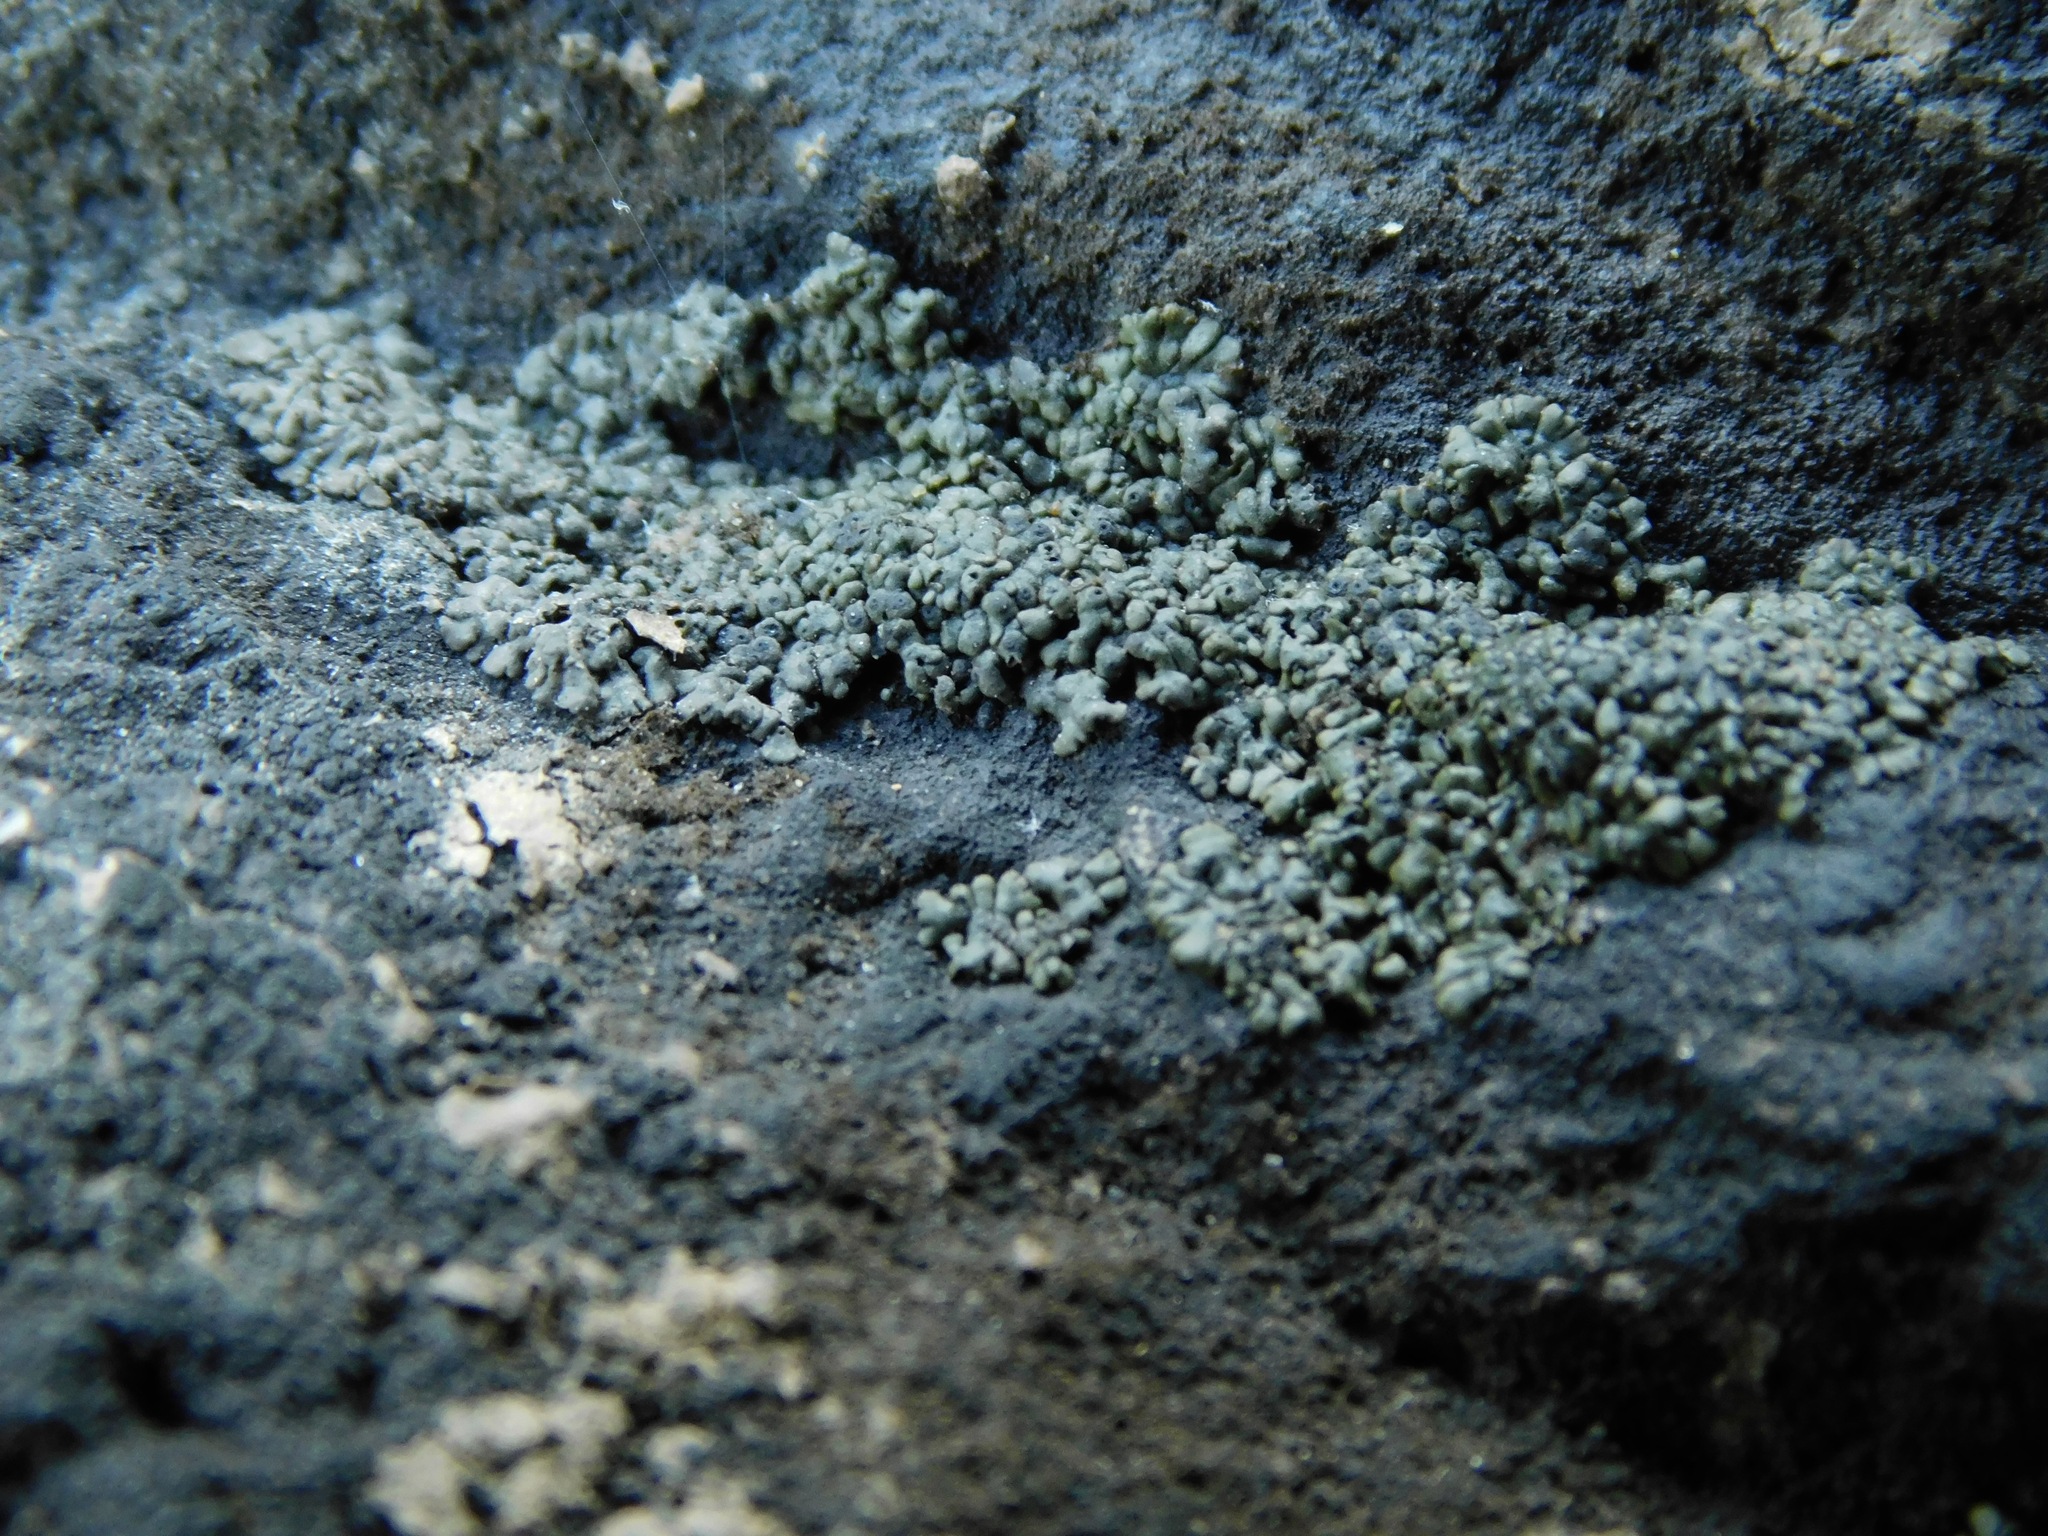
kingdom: Fungi
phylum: Ascomycota
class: Eurotiomycetes
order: Verrucariales
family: Verrucariaceae
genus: Endocarpon
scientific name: Endocarpon pallidulum
